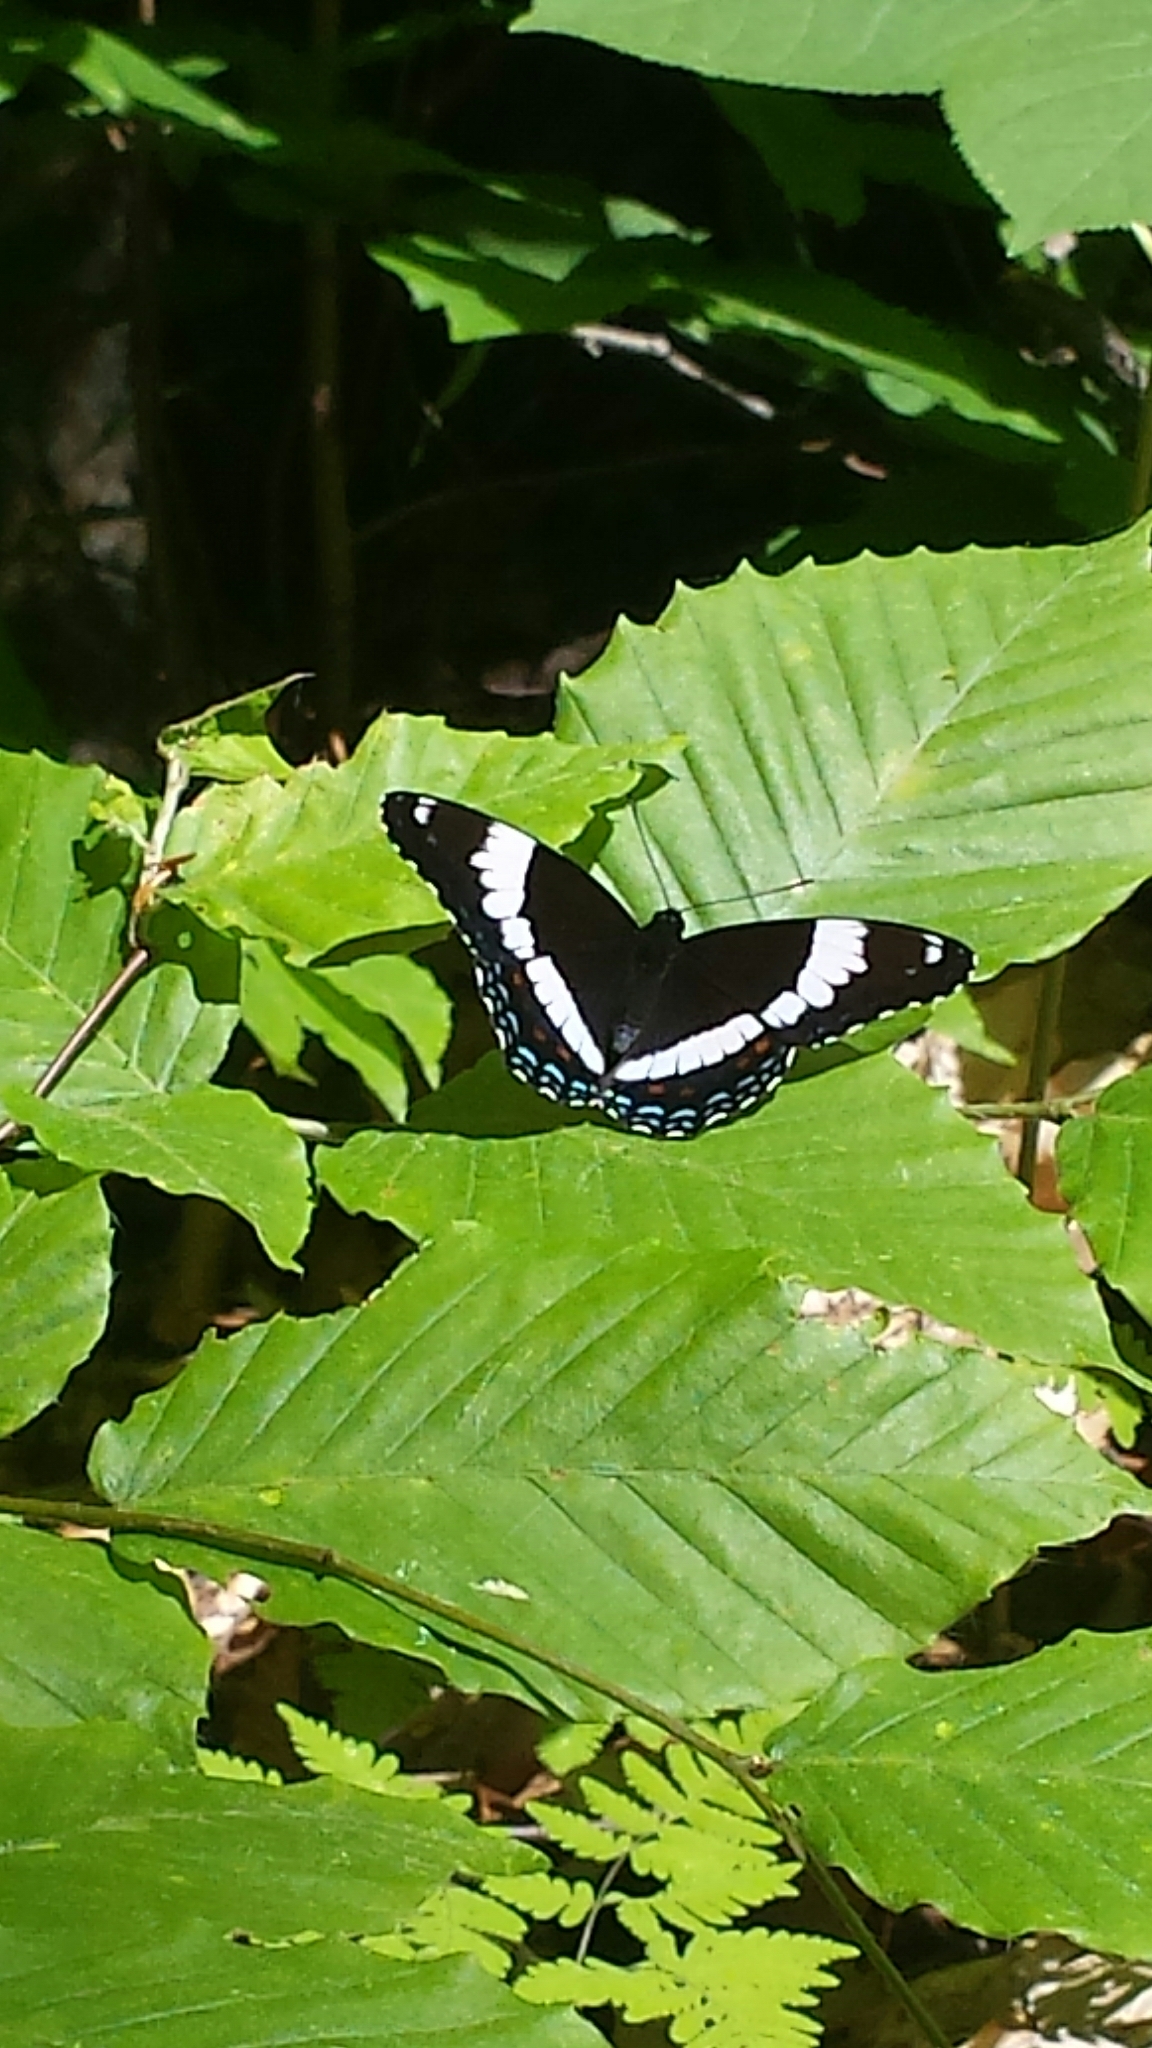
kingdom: Animalia
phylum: Arthropoda
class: Insecta
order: Lepidoptera
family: Nymphalidae
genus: Limenitis
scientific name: Limenitis arthemis
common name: Red-spotted admiral
